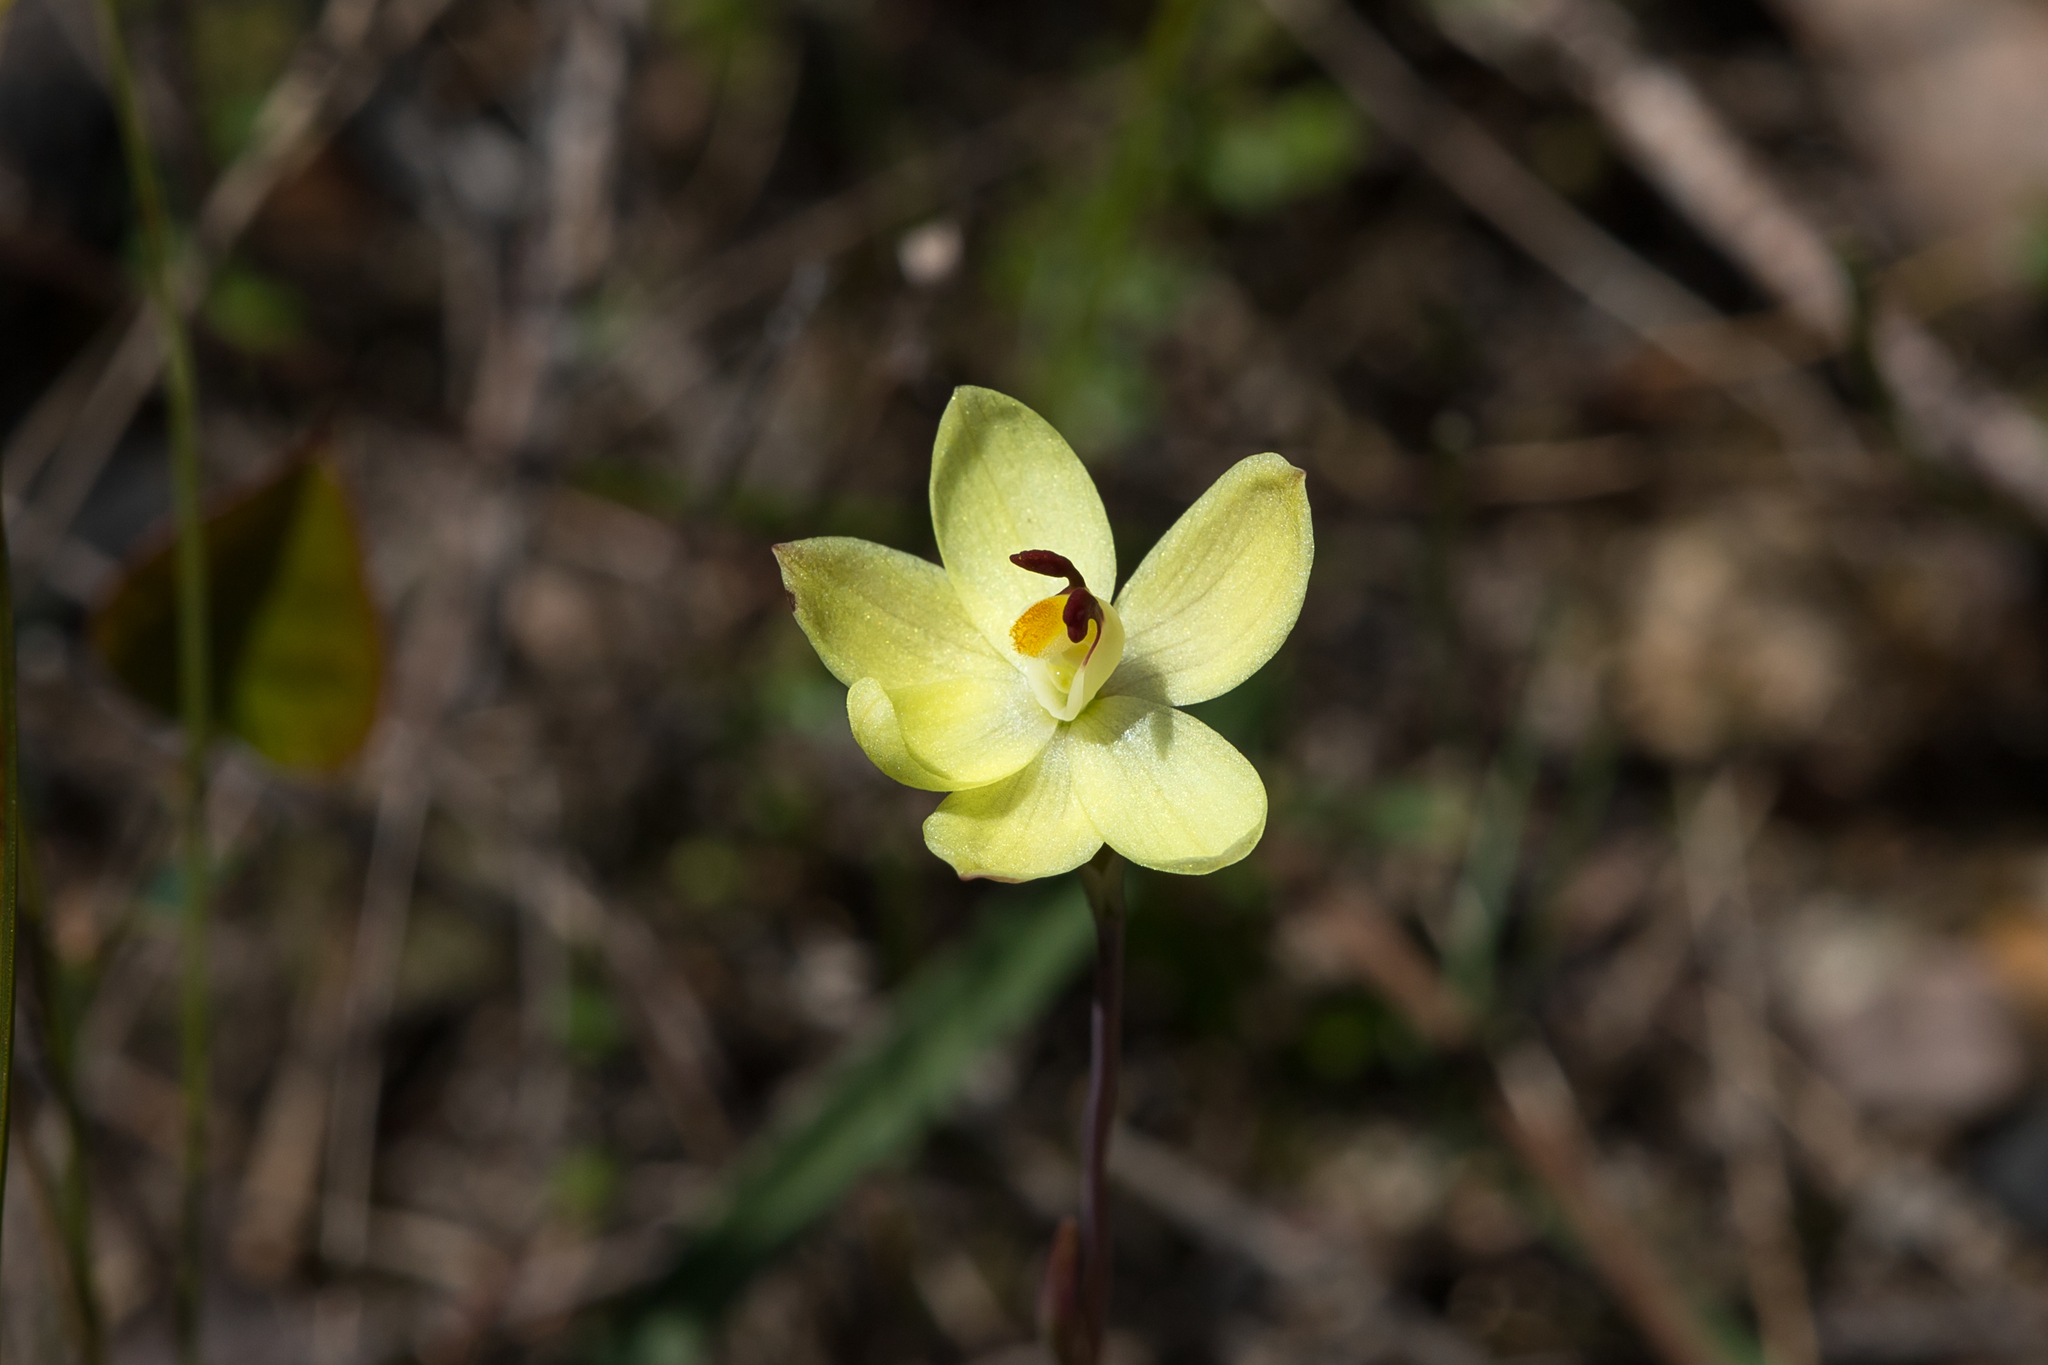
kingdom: Plantae
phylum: Tracheophyta
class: Liliopsida
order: Asparagales
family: Orchidaceae
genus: Thelymitra
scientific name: Thelymitra antennifera
